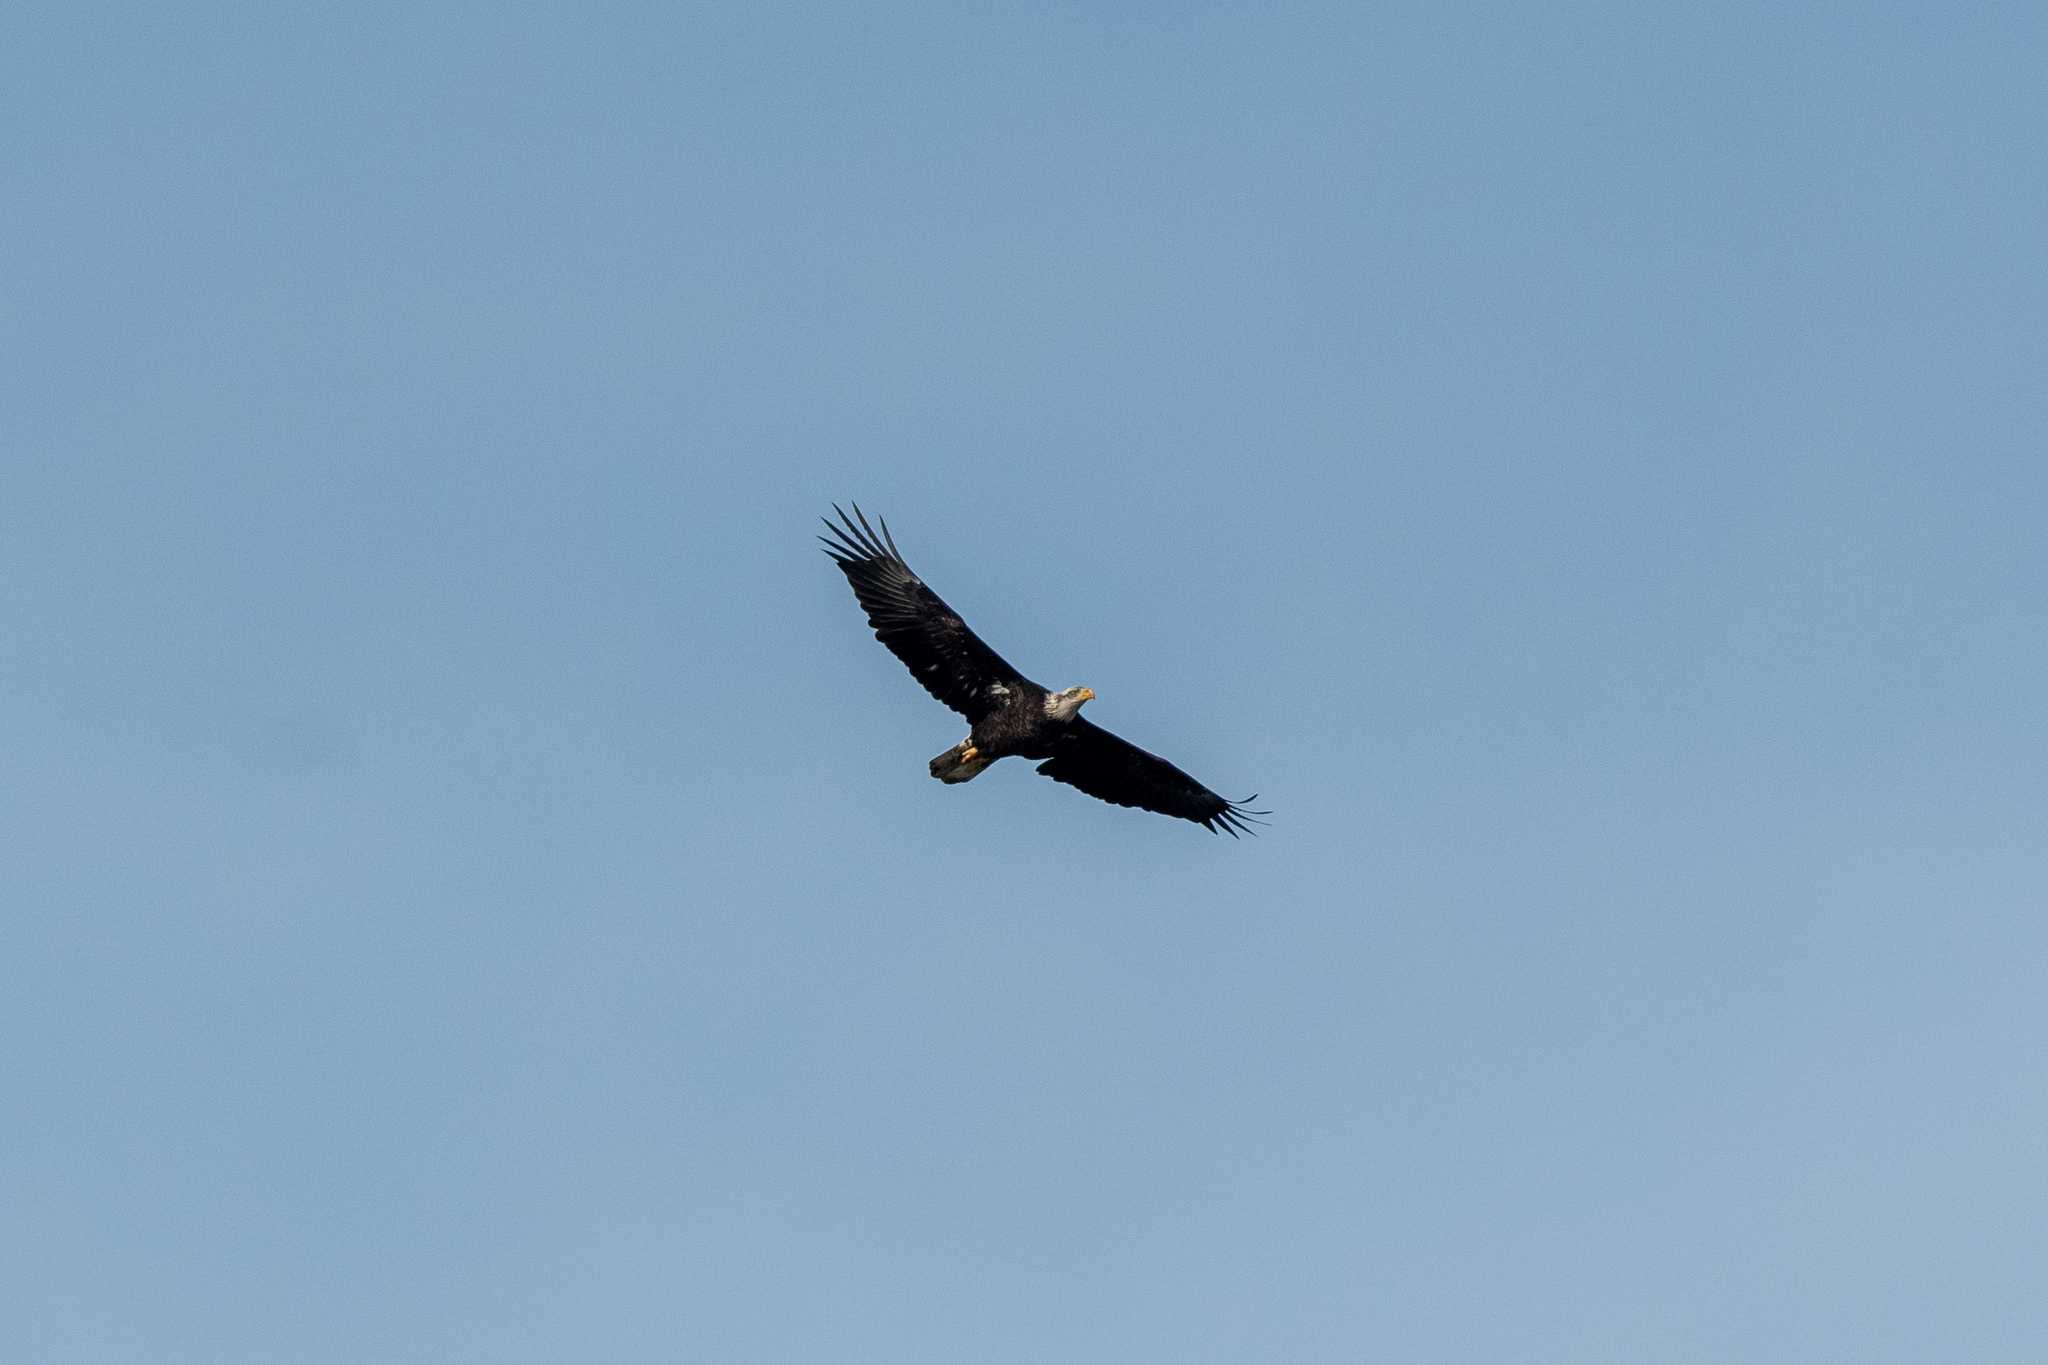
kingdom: Animalia
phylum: Chordata
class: Aves
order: Accipitriformes
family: Accipitridae
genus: Haliaeetus
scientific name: Haliaeetus leucocephalus
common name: Bald eagle
